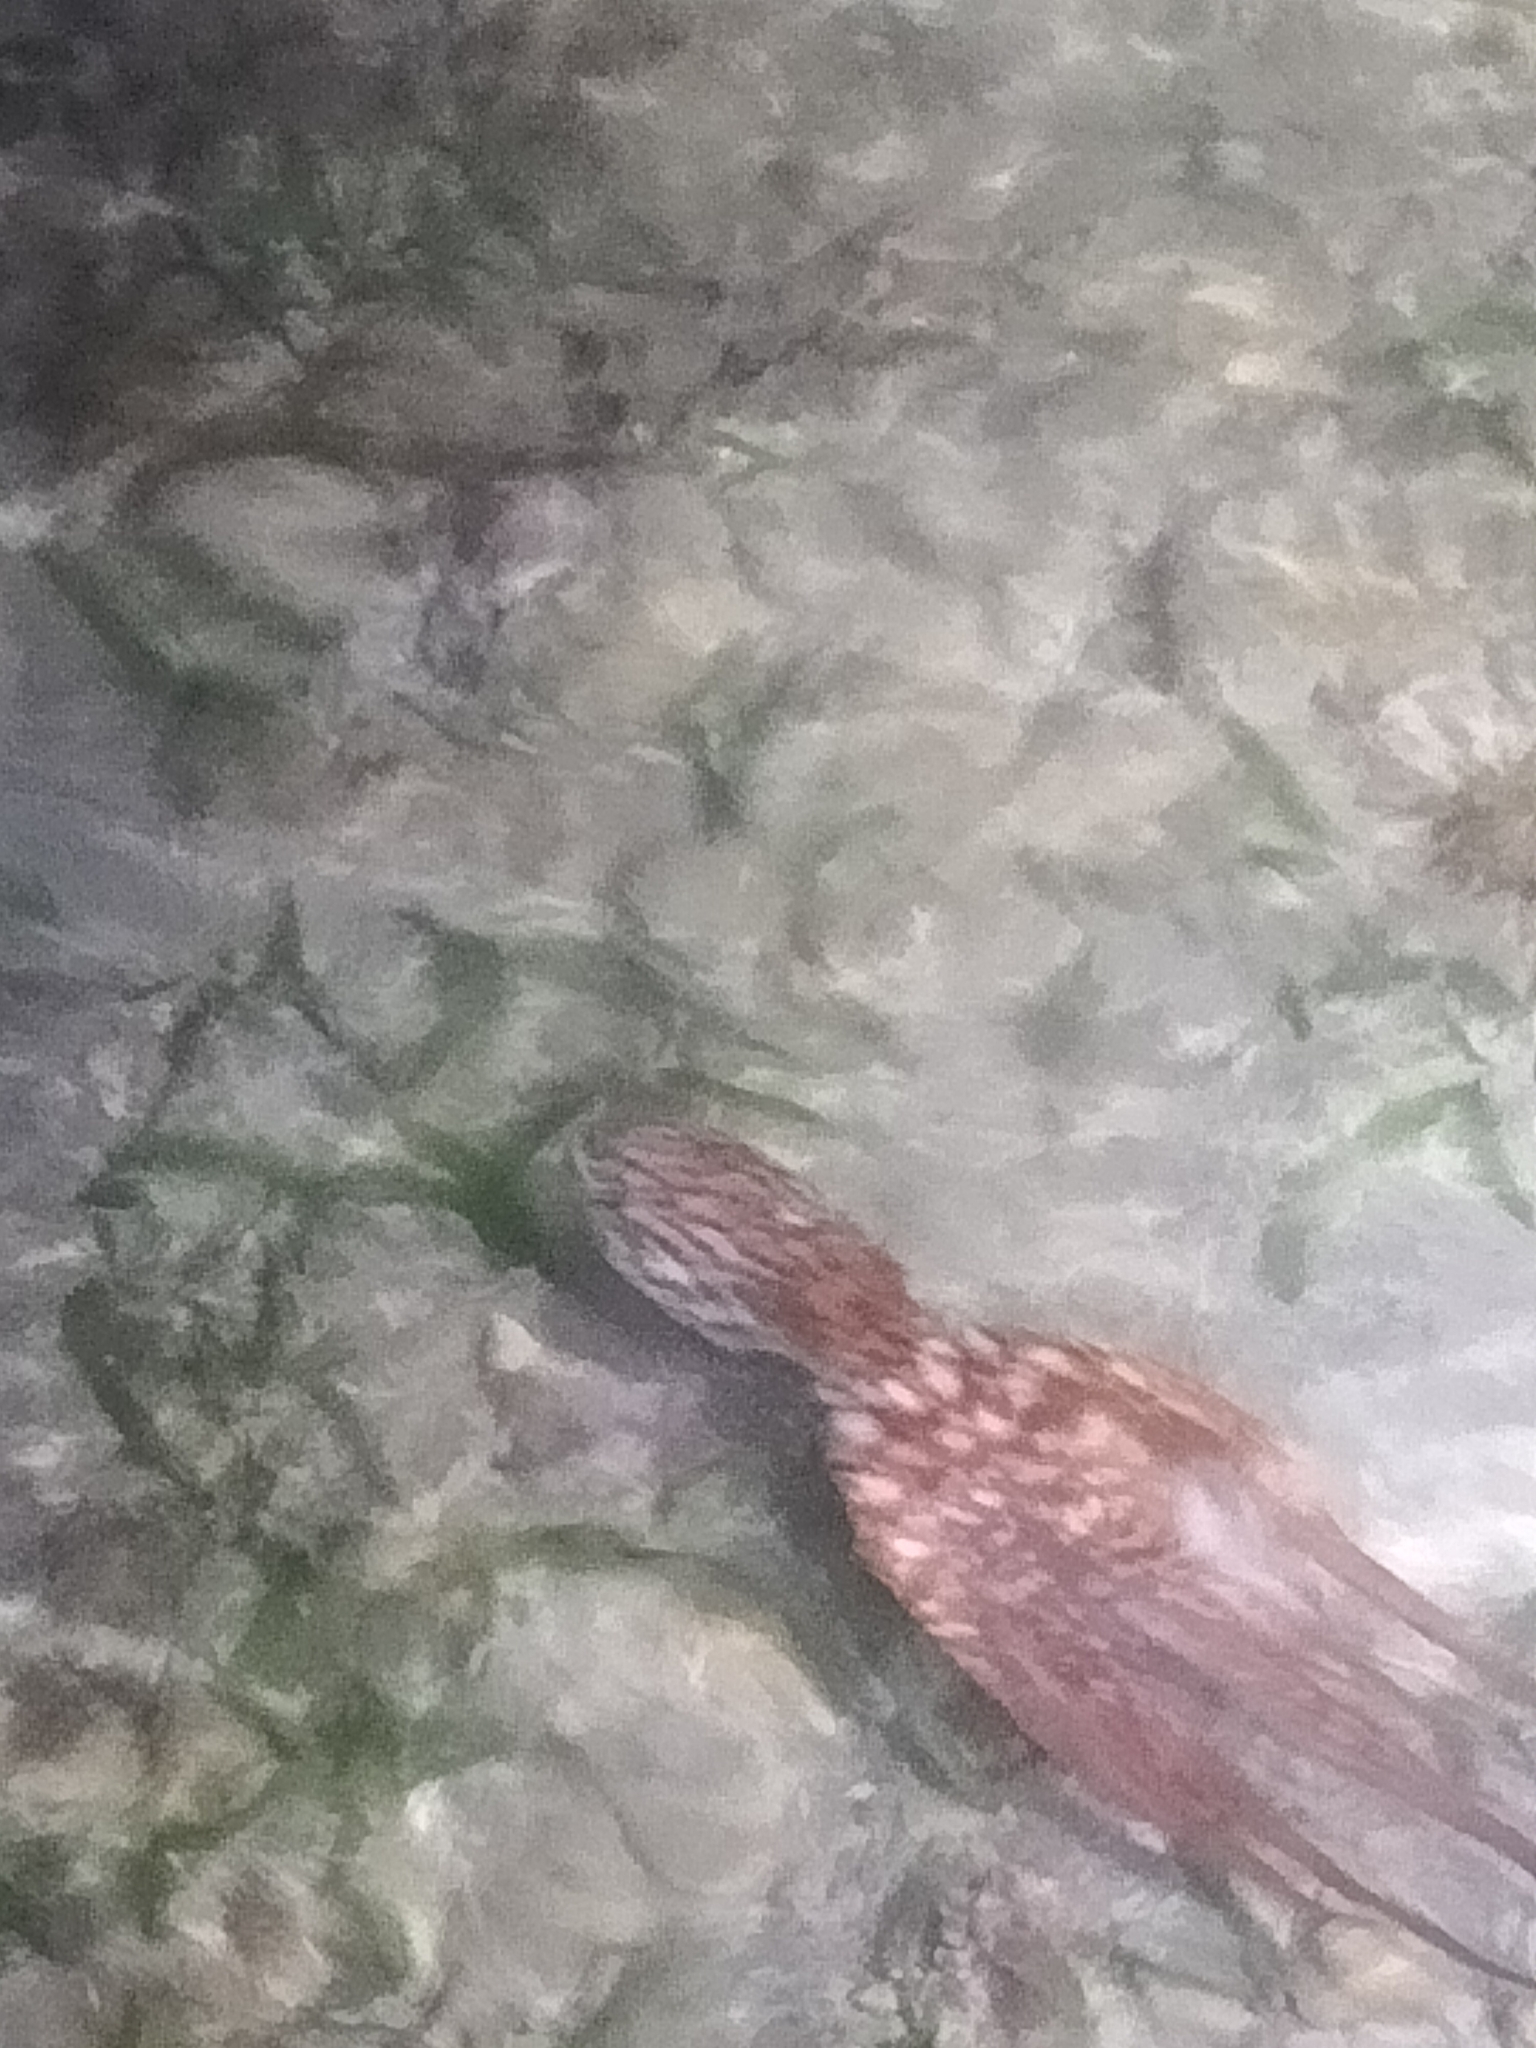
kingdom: Animalia
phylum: Mollusca
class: Cephalopoda
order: Octopoda
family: Octopodidae
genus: Callistoctopus
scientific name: Callistoctopus dierythraeus
